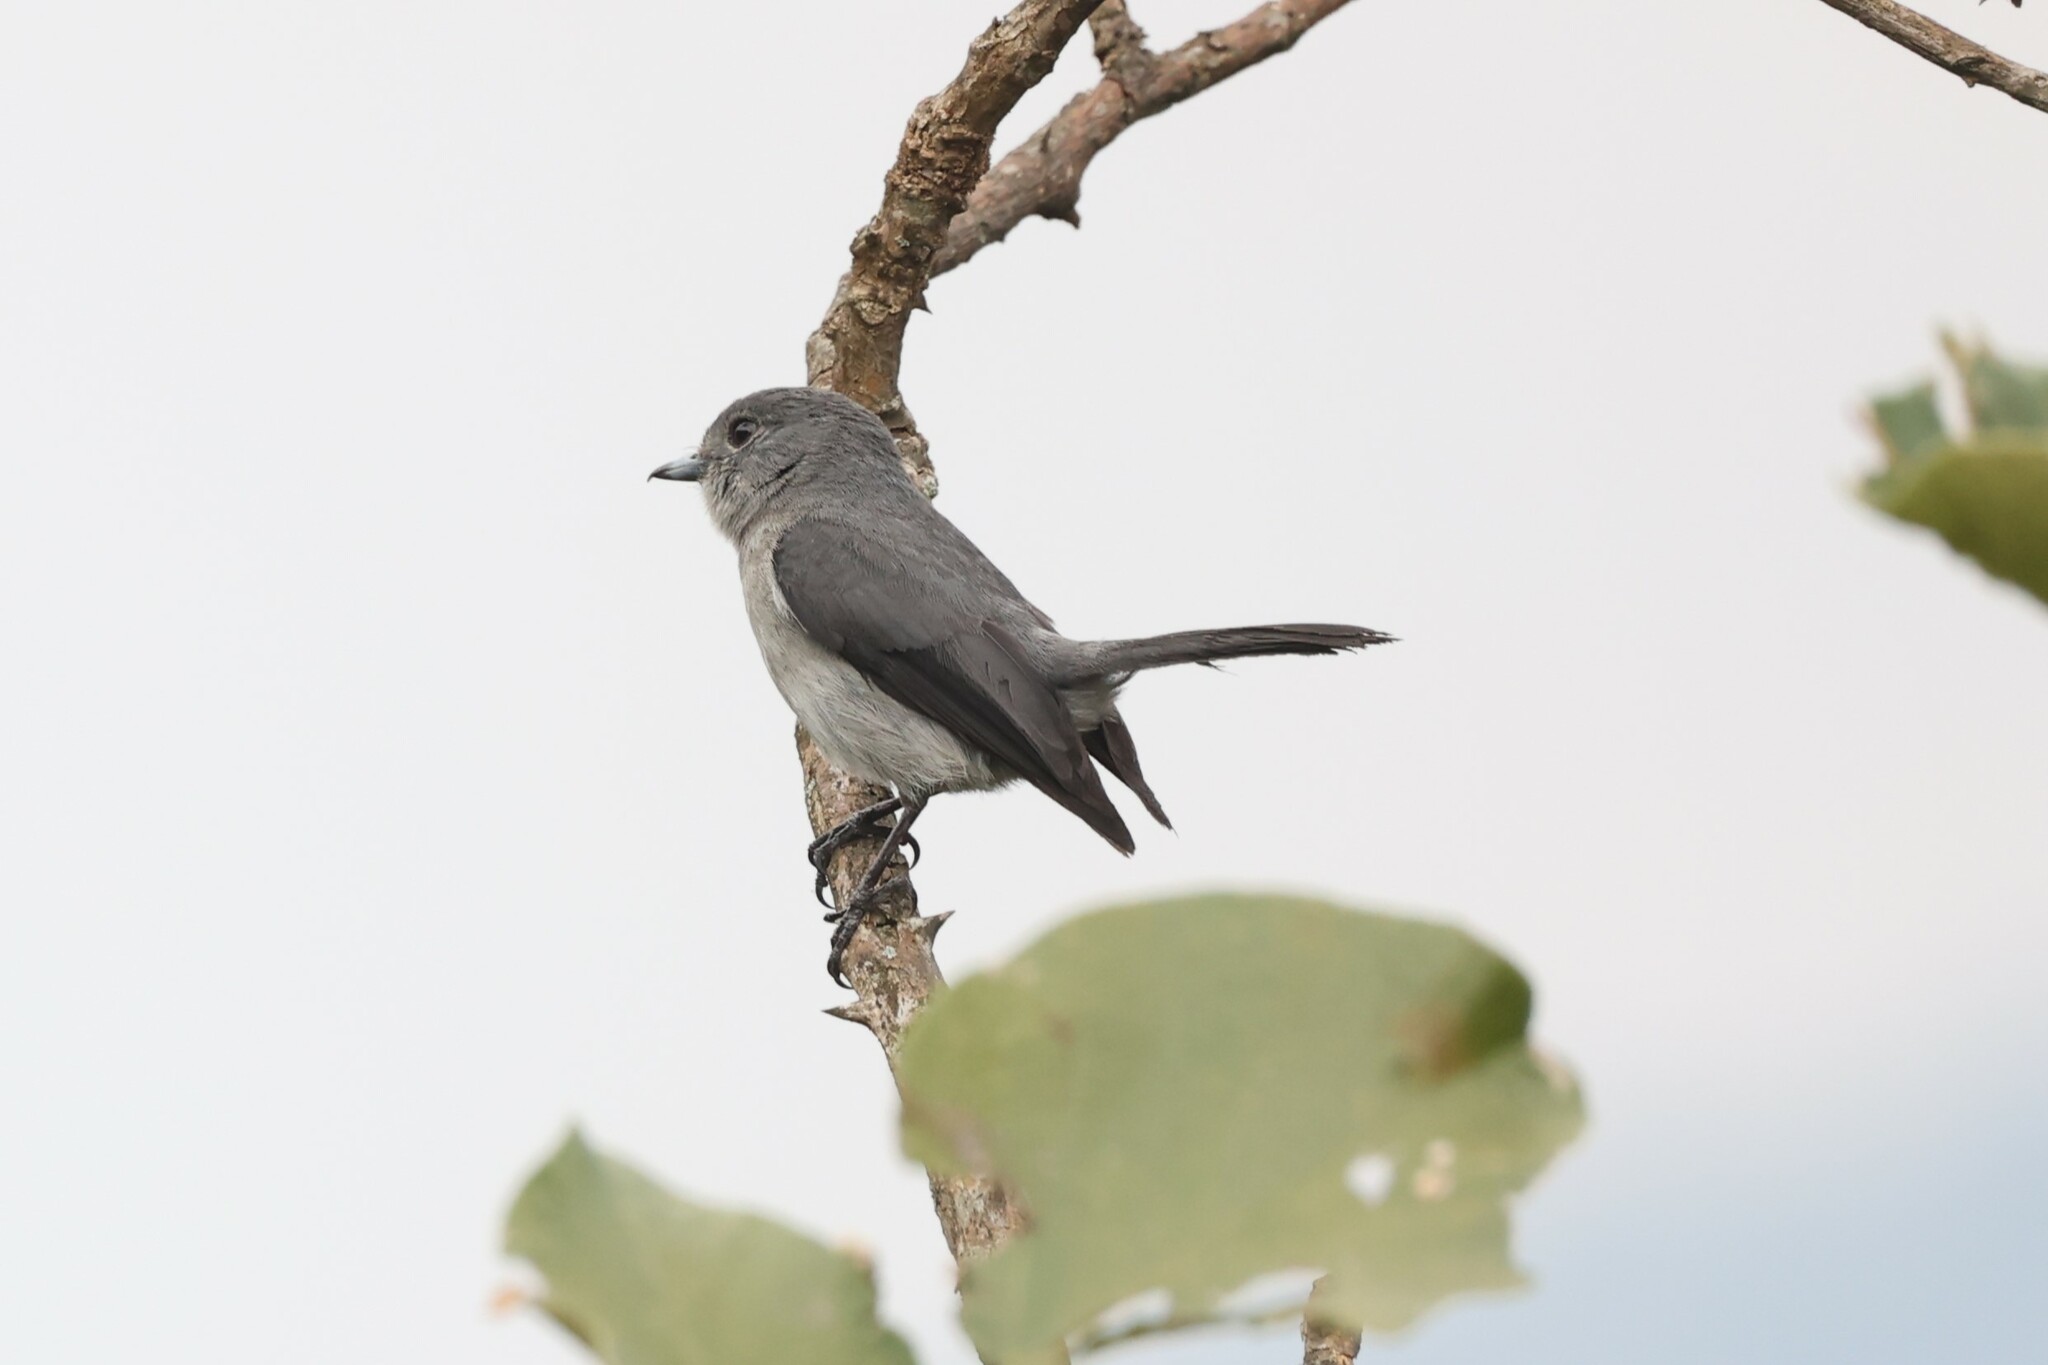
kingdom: Animalia
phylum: Chordata
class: Aves
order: Passeriformes
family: Muscicapidae
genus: Dioptrornis
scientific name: Dioptrornis fischeri
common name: White-eyed slaty flycatcher
